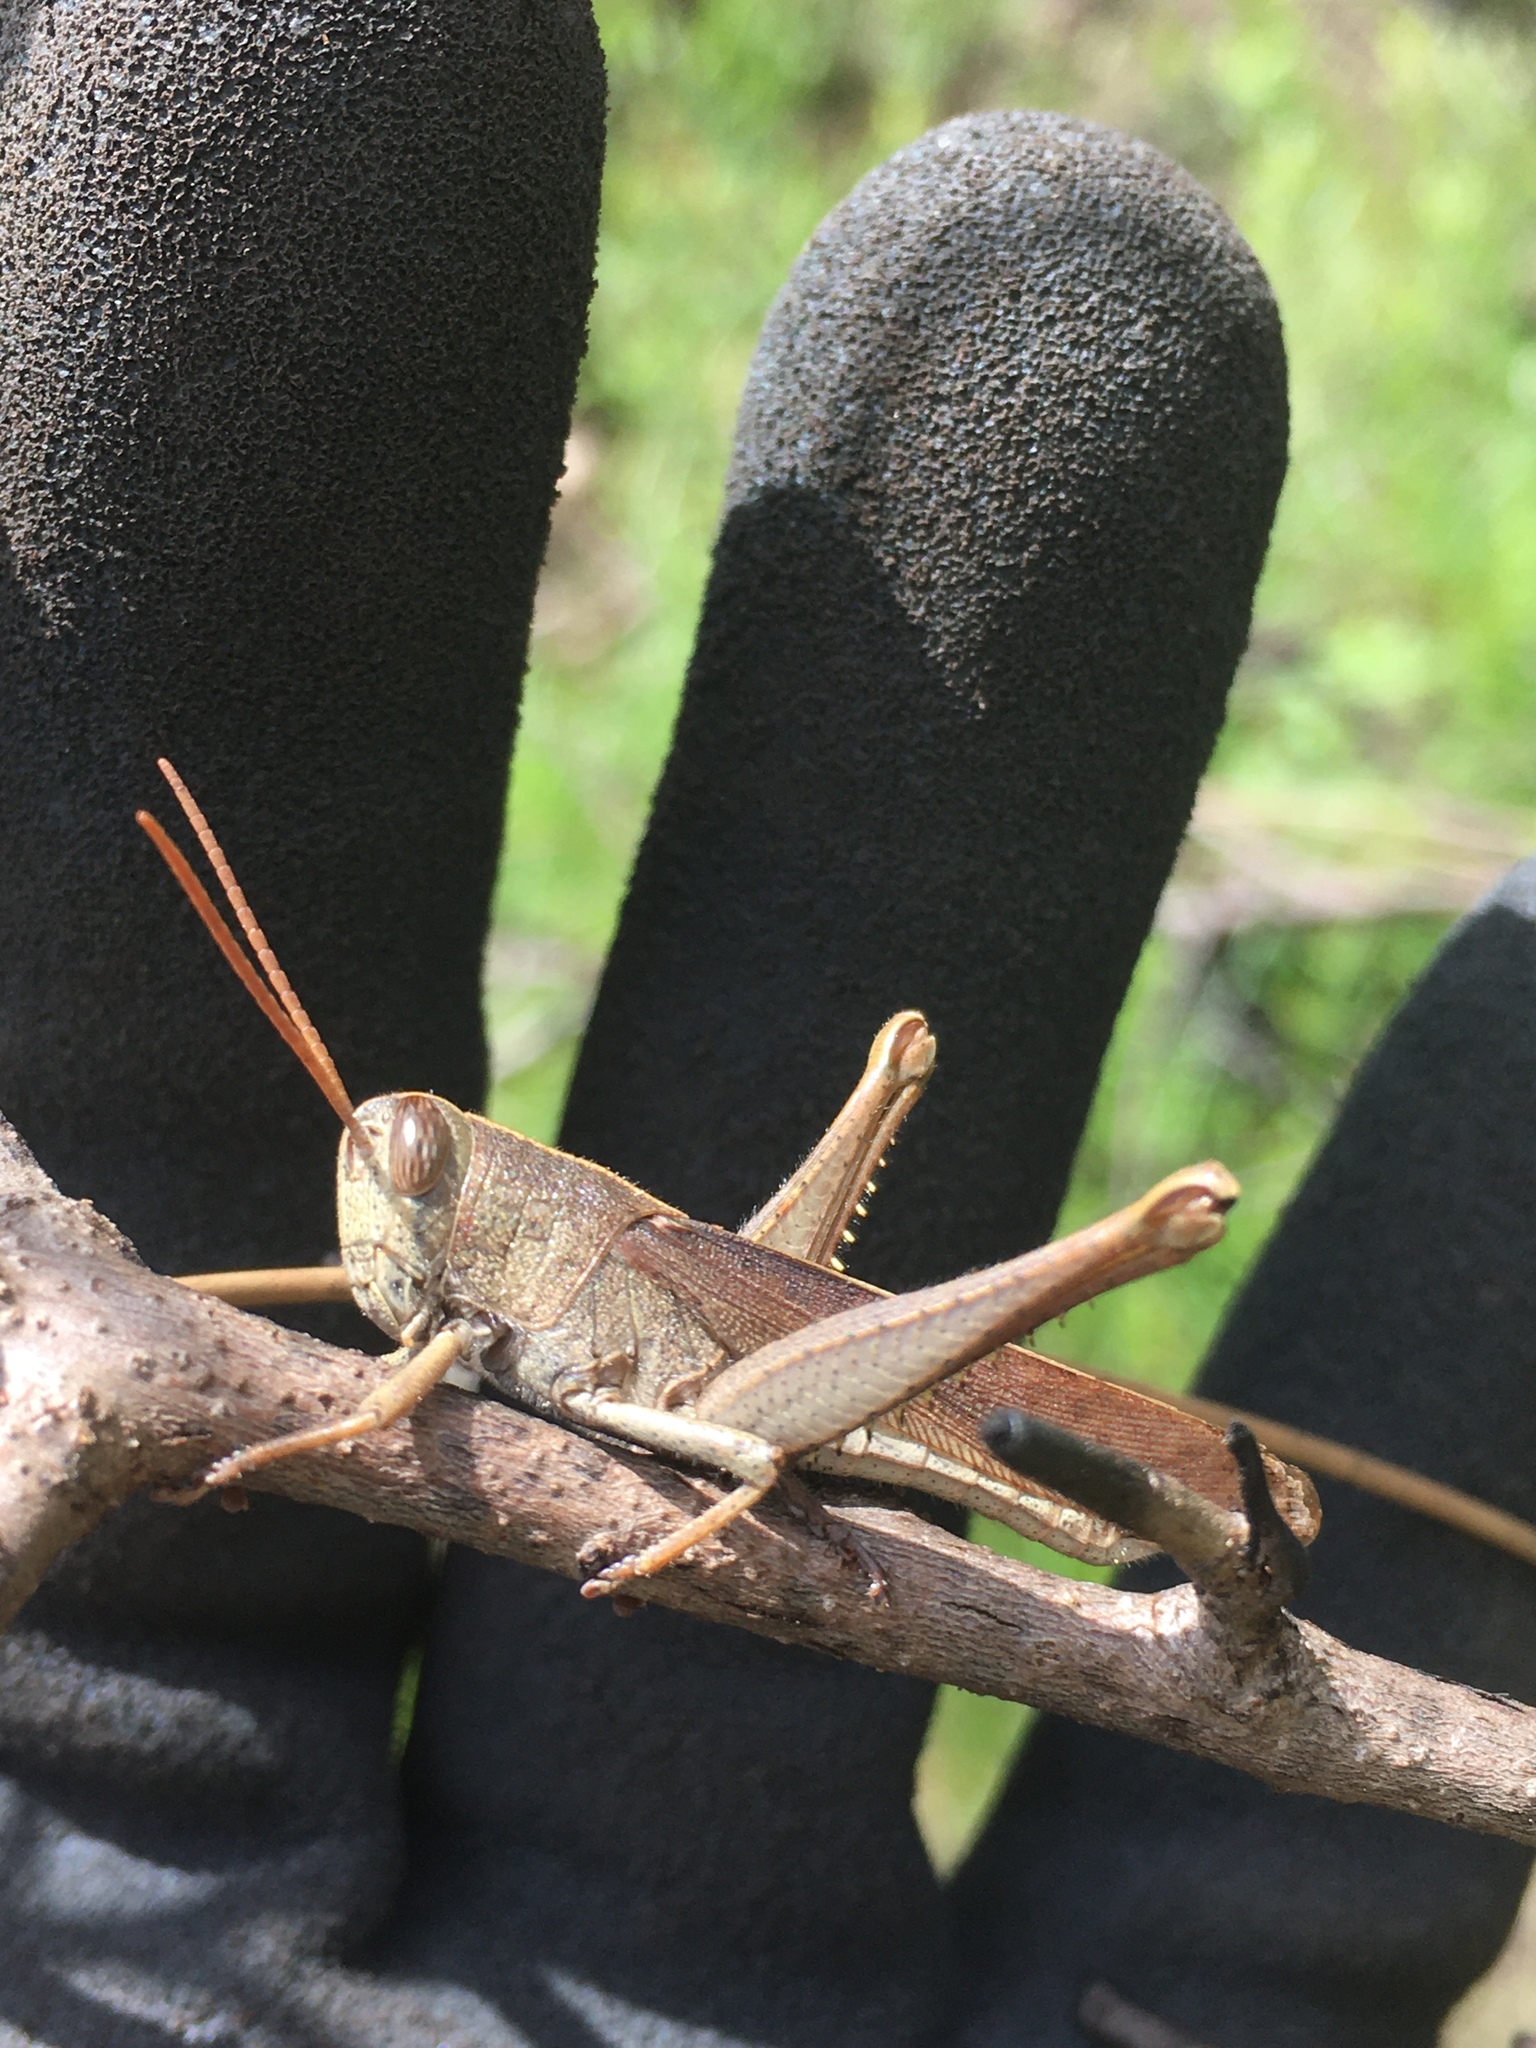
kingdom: Animalia
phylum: Arthropoda
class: Insecta
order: Orthoptera
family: Acrididae
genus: Schistocerca
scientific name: Schistocerca damnifica
